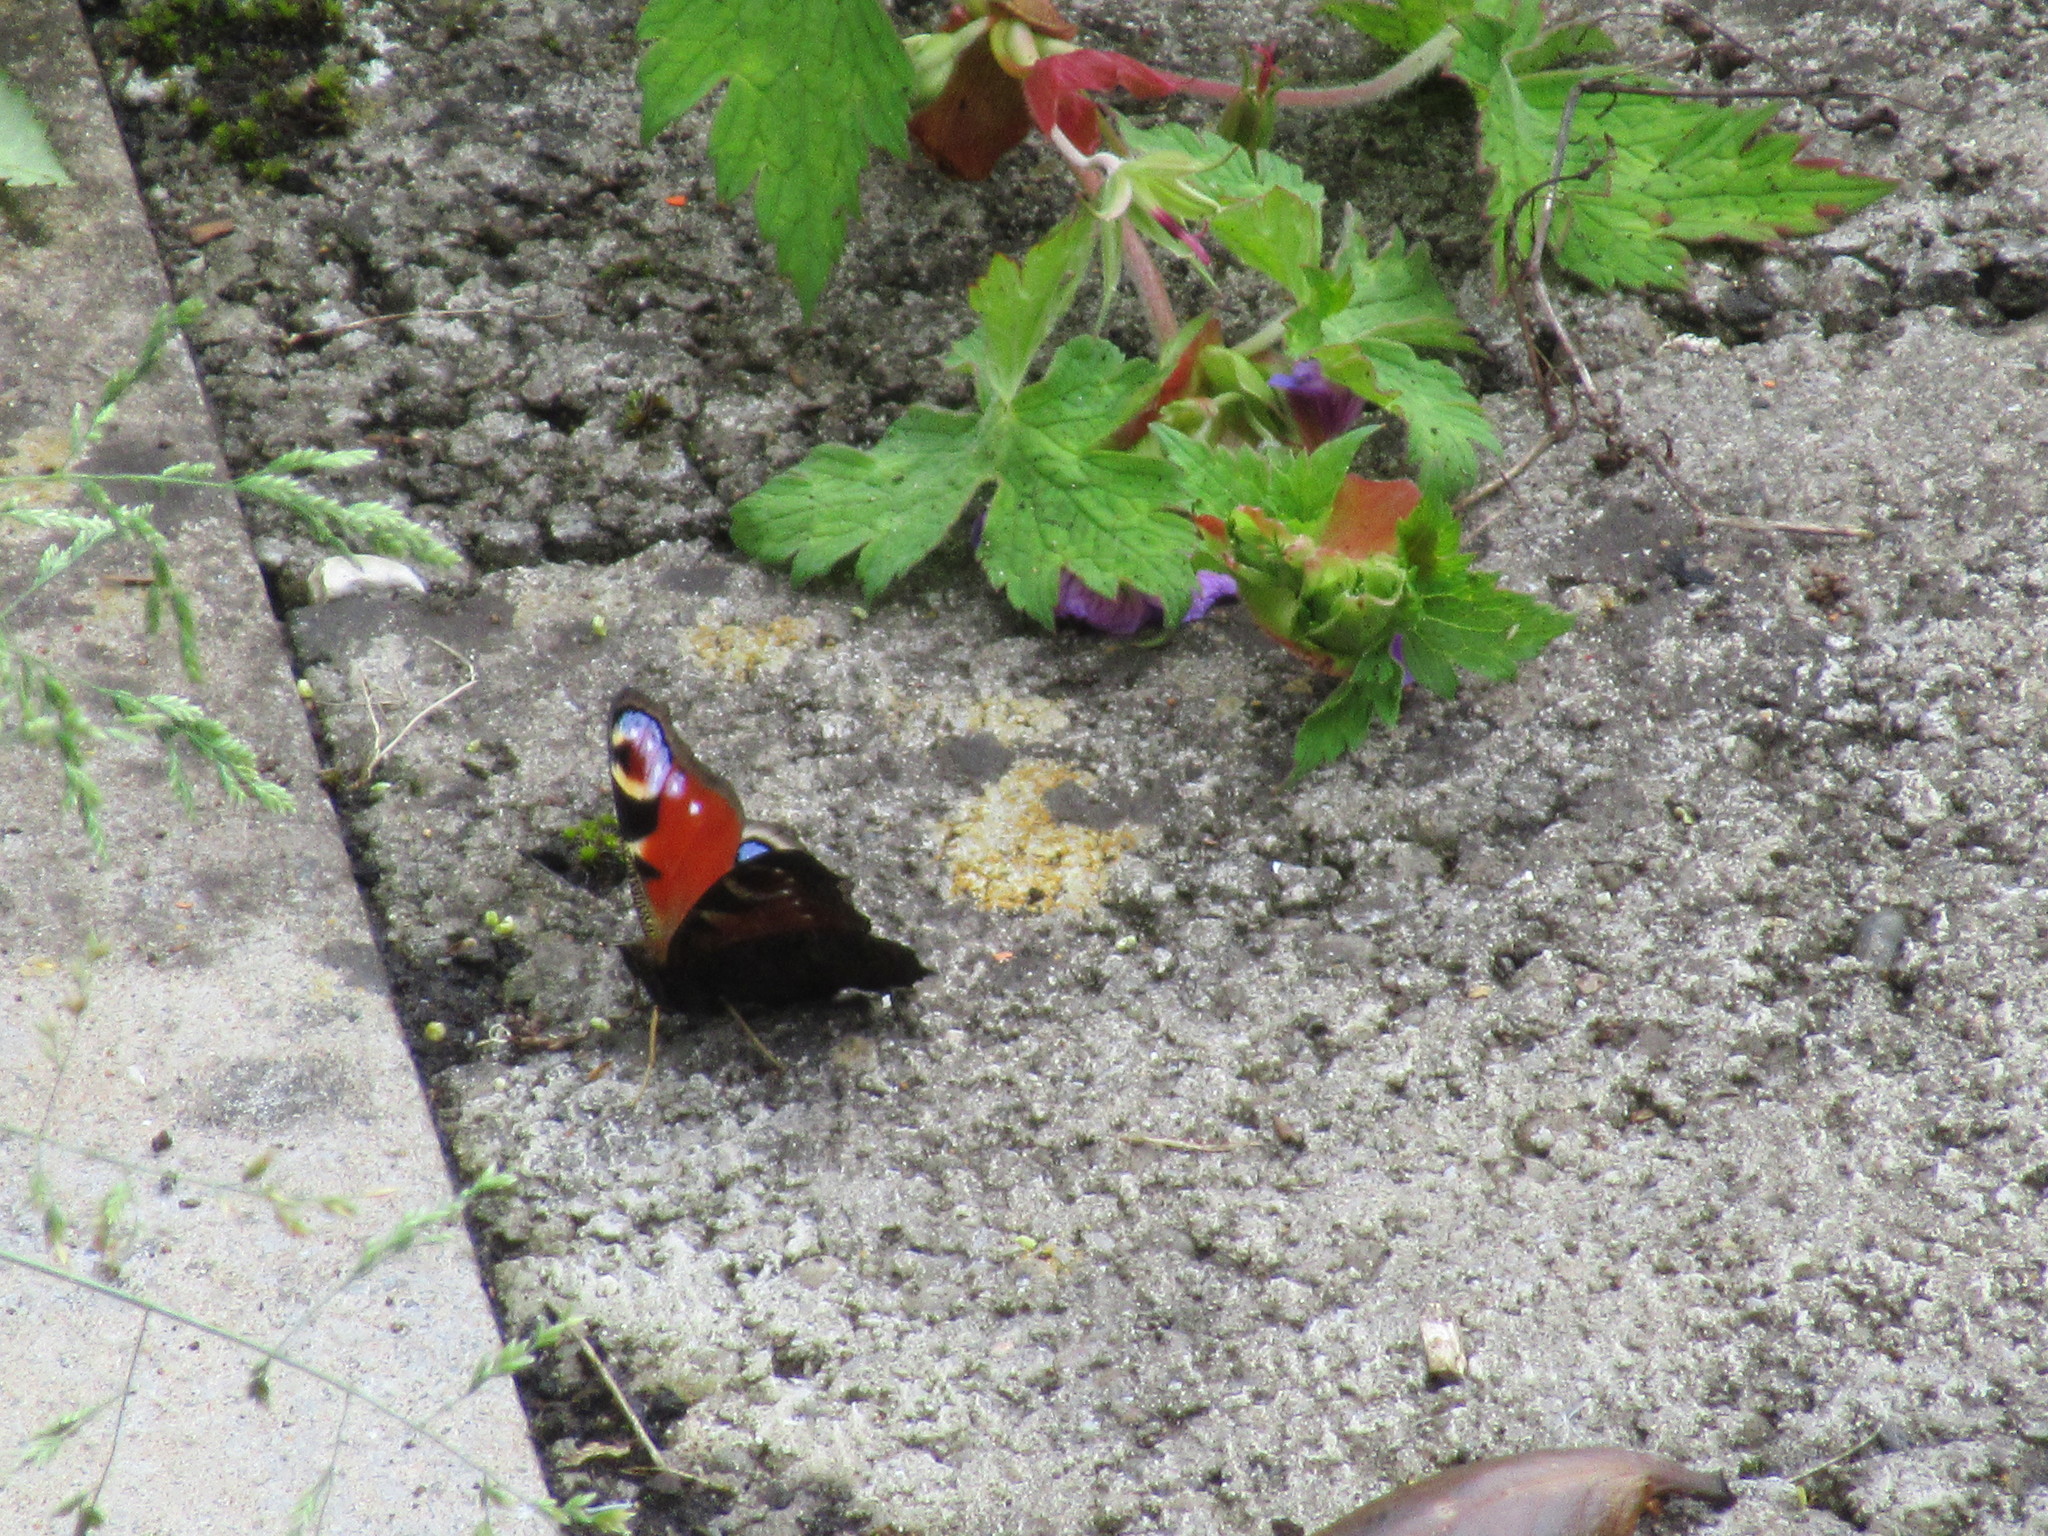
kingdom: Animalia
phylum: Arthropoda
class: Insecta
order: Lepidoptera
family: Nymphalidae
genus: Aglais
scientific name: Aglais io
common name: Peacock
